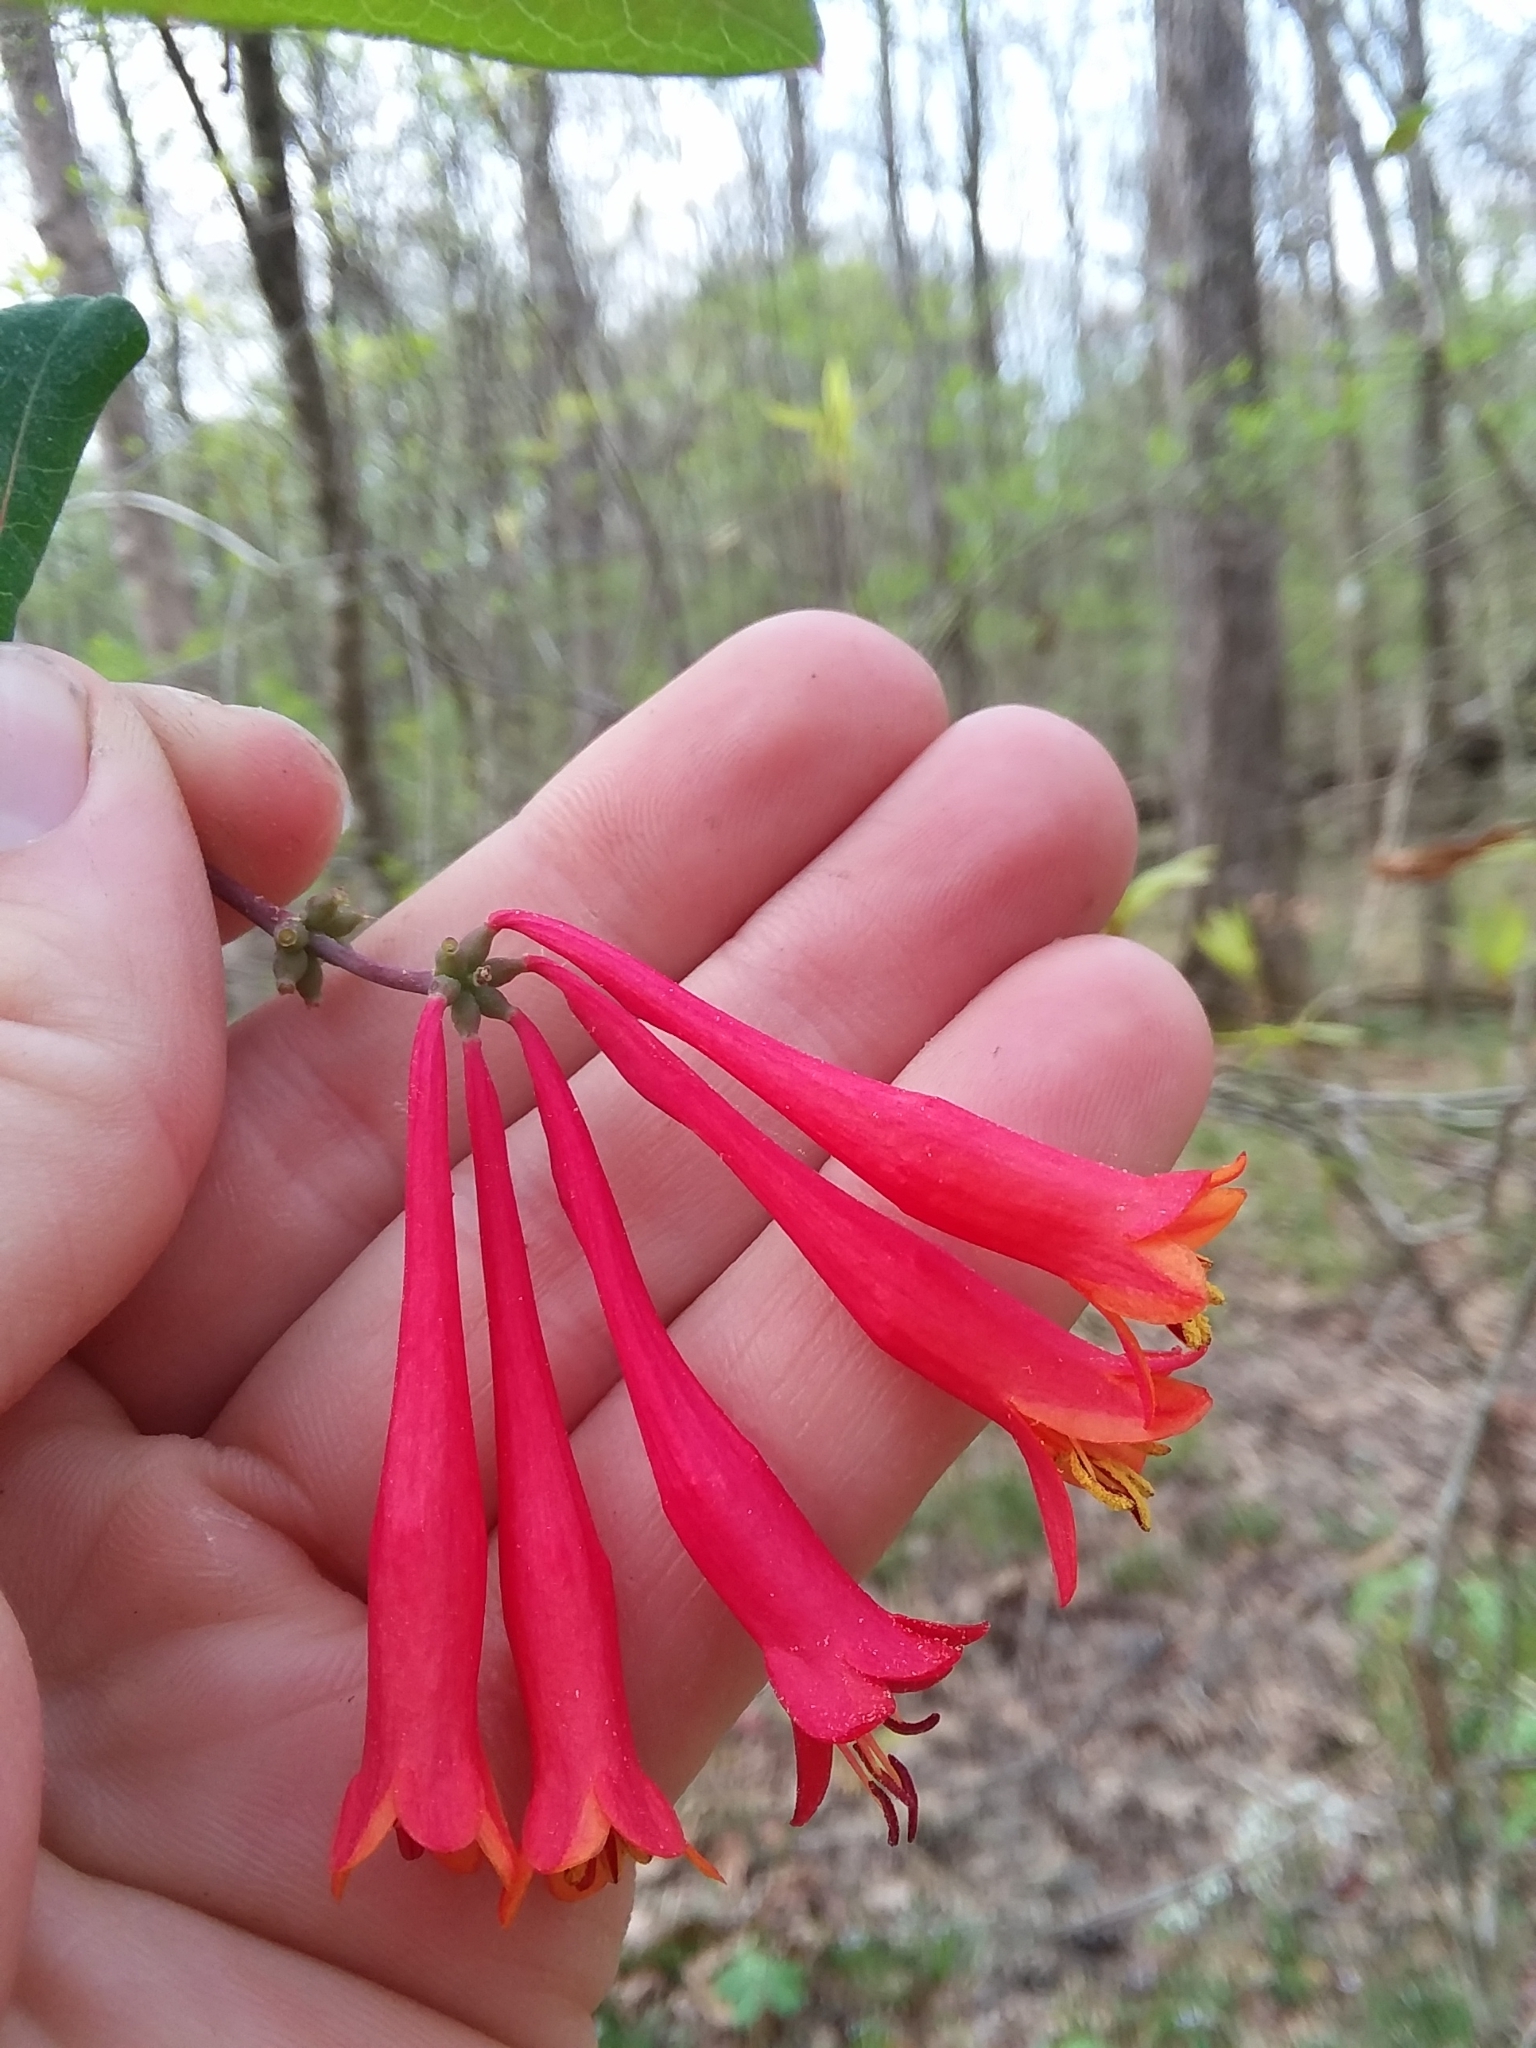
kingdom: Plantae
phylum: Tracheophyta
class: Magnoliopsida
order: Dipsacales
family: Caprifoliaceae
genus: Lonicera
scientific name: Lonicera sempervirens
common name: Coral honeysuckle
